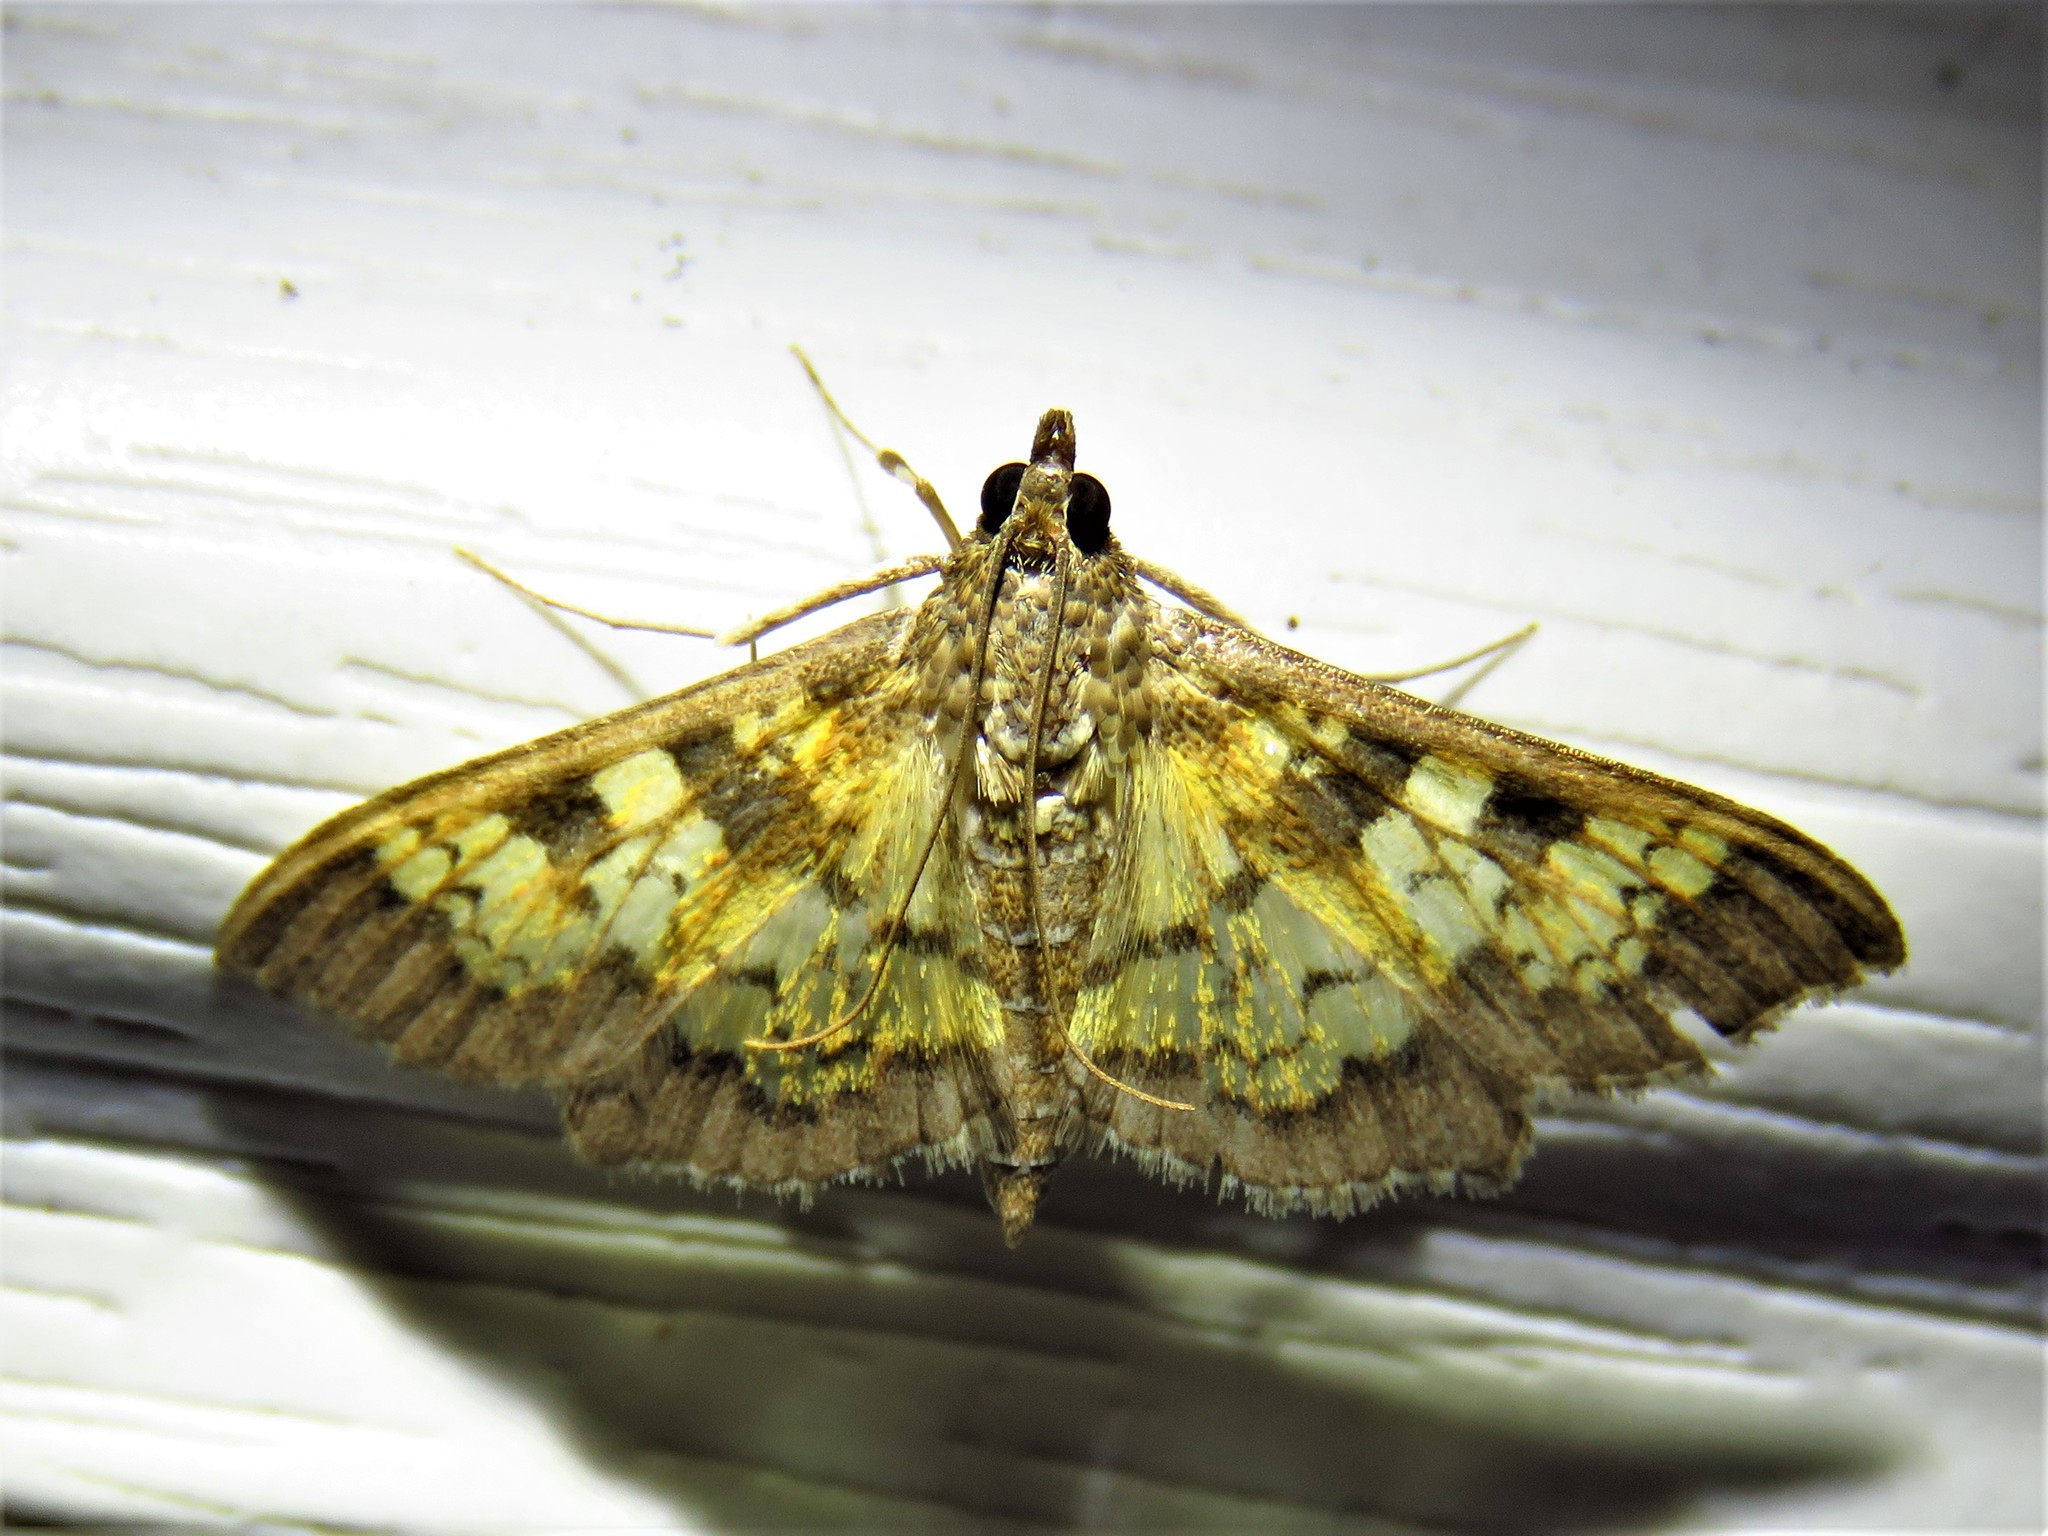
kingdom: Animalia
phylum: Arthropoda
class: Insecta
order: Lepidoptera
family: Crambidae
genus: Cryptographis
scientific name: Cryptographis elealis
